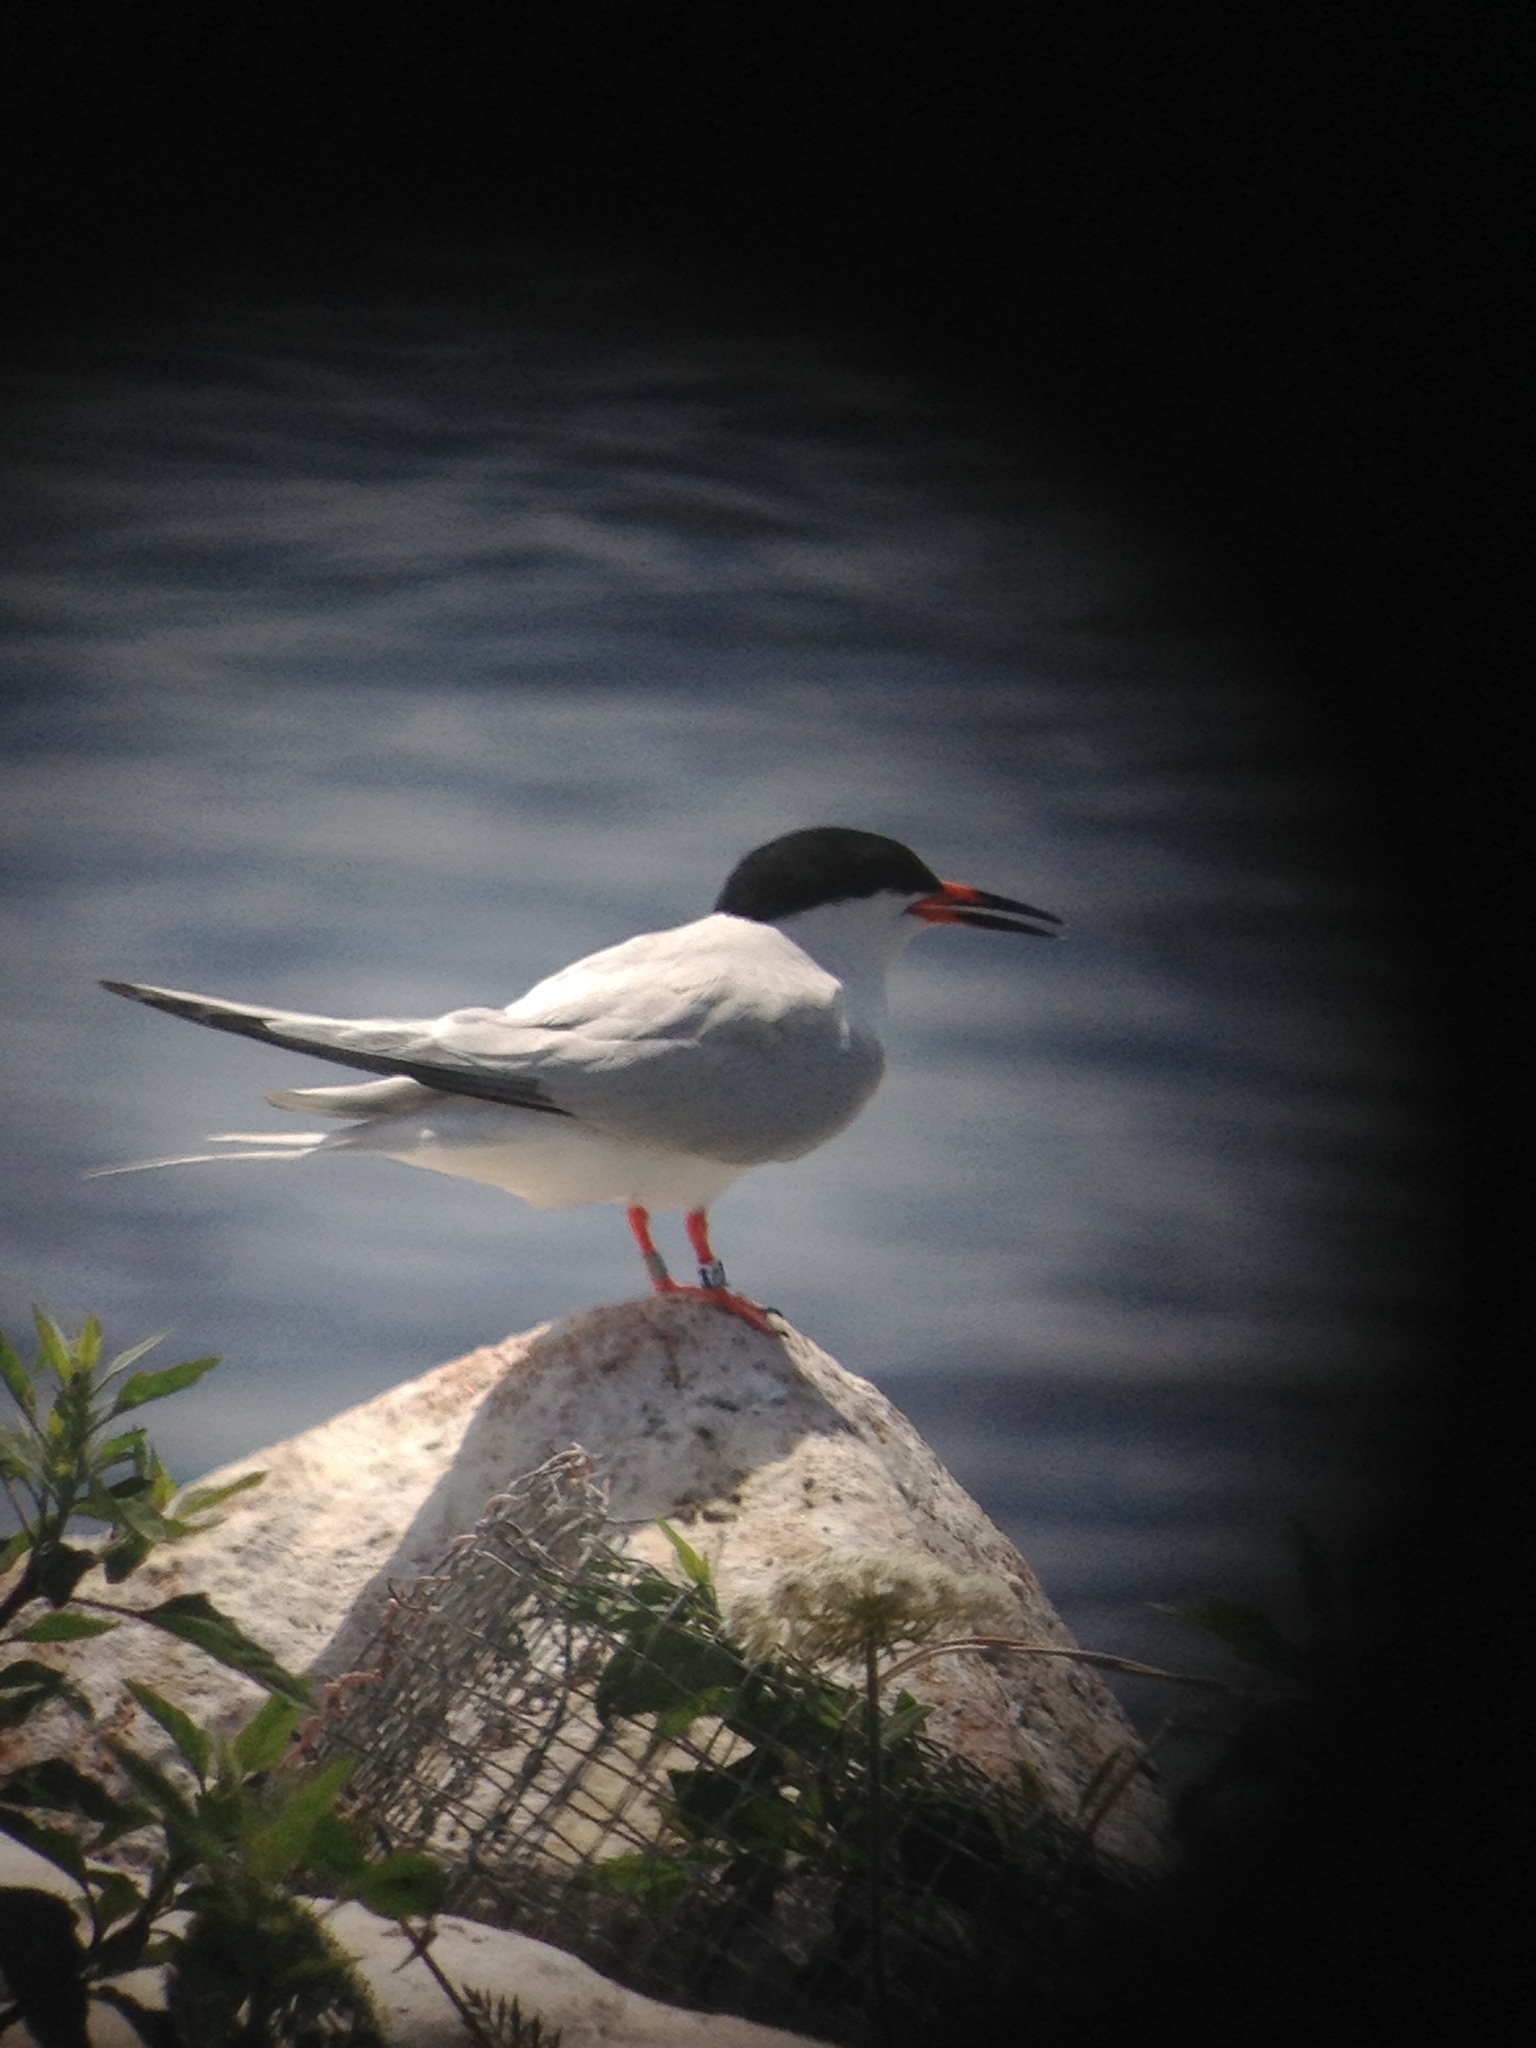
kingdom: Animalia
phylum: Chordata
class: Aves
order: Charadriiformes
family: Laridae
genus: Sterna
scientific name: Sterna dougallii
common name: Roseate tern
